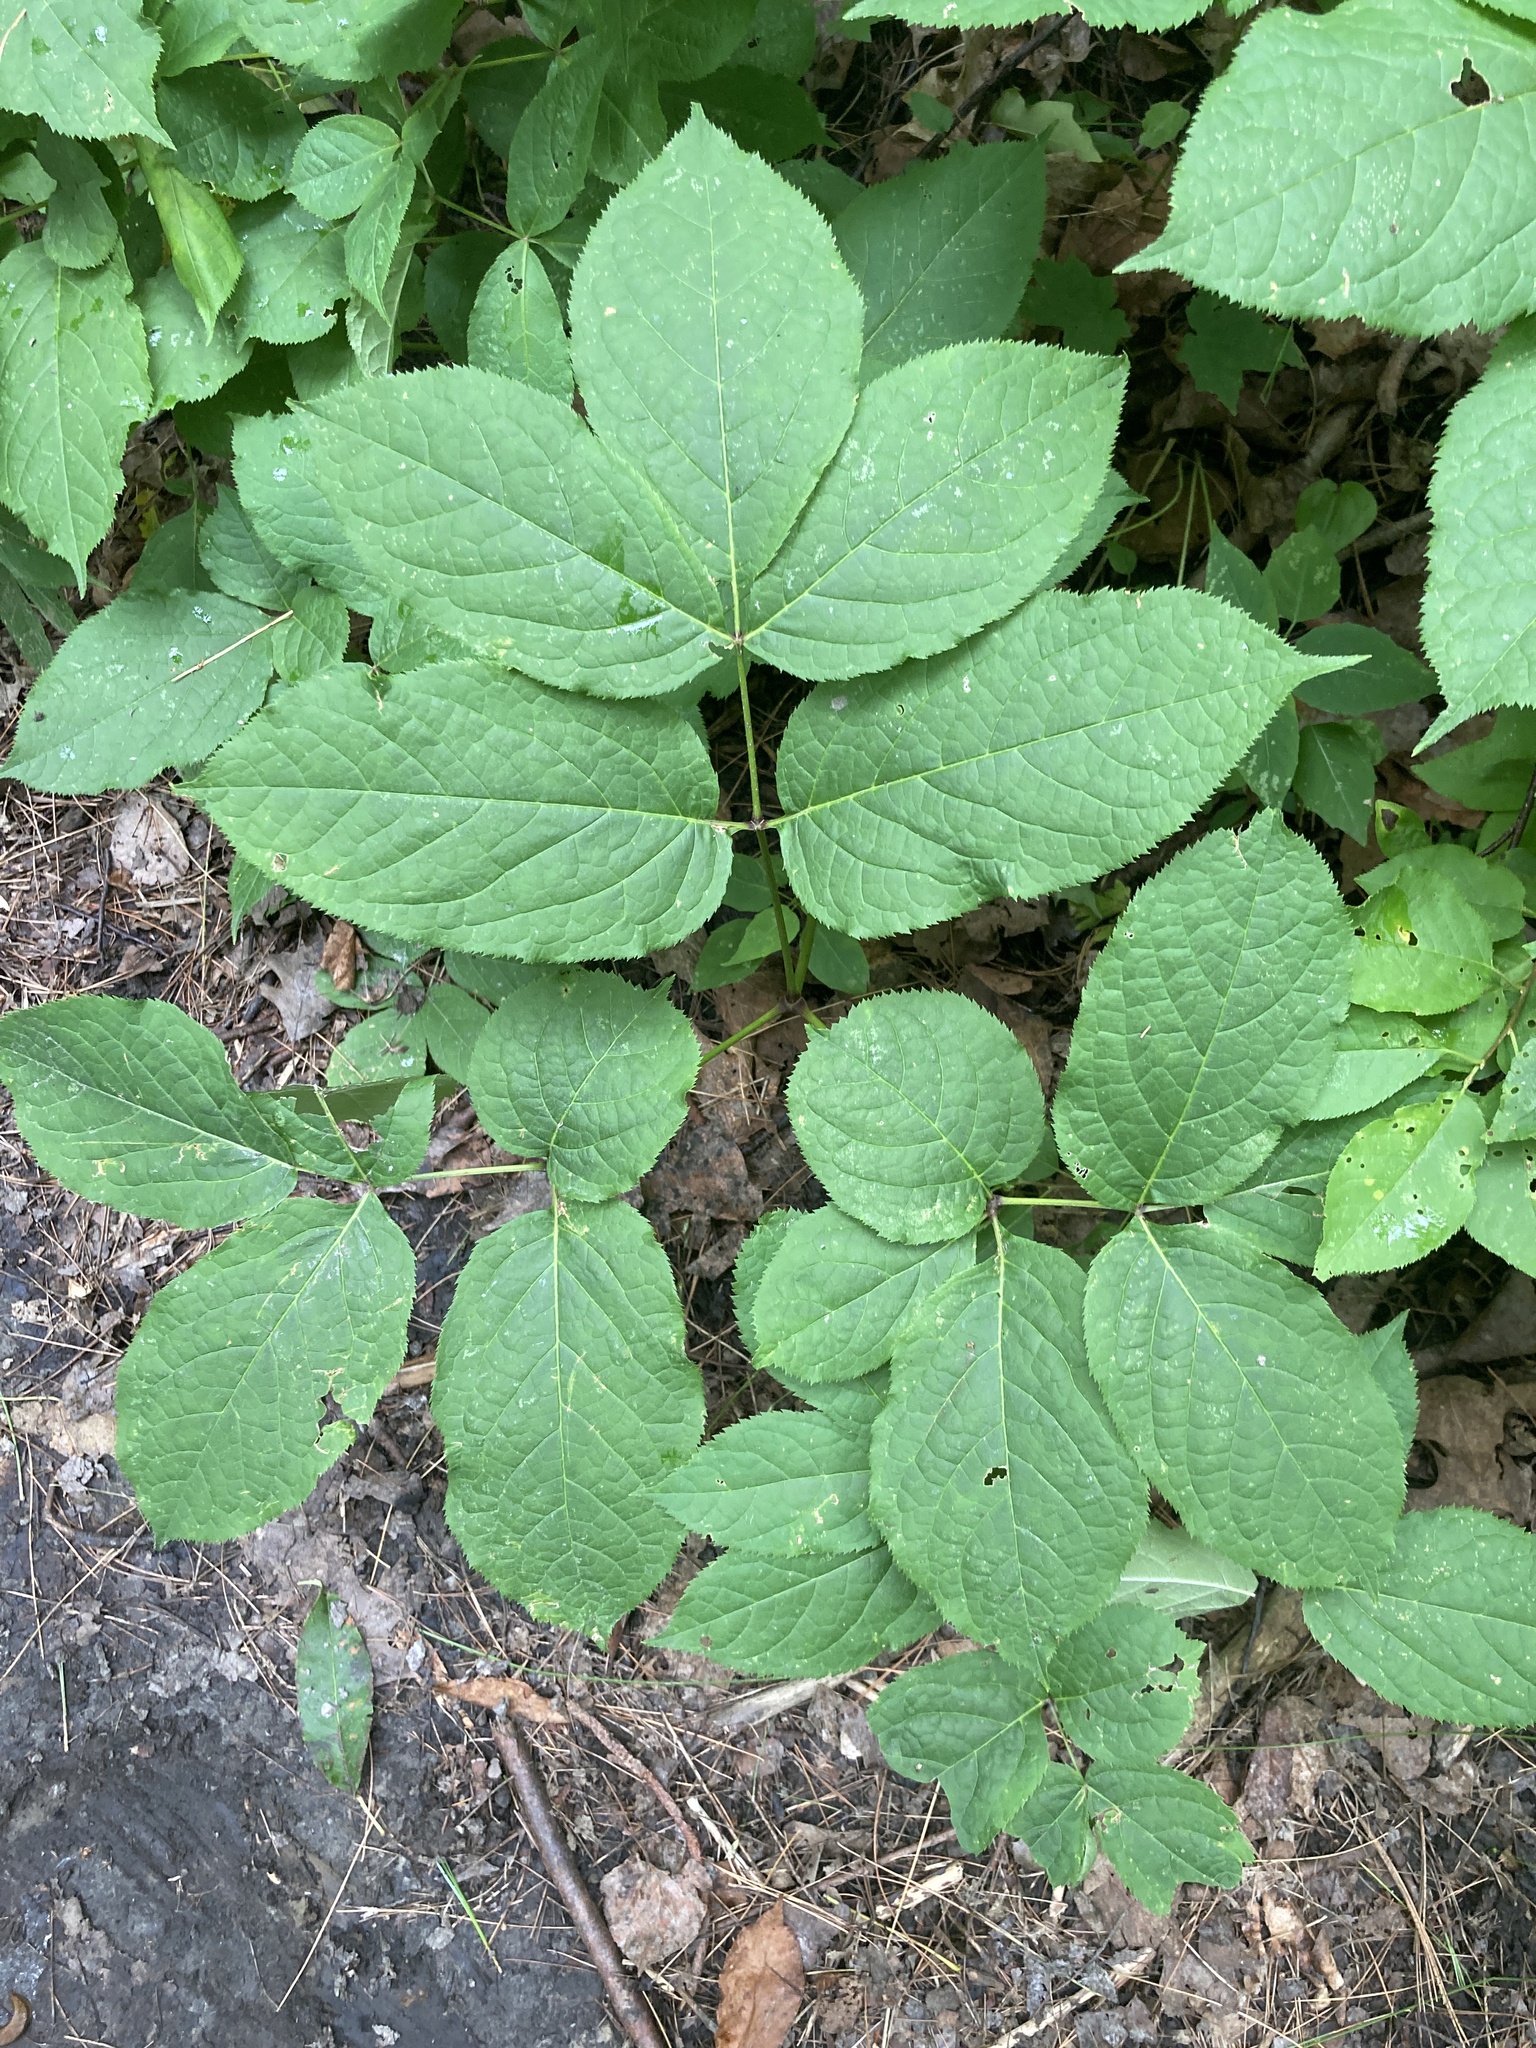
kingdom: Plantae
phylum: Tracheophyta
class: Magnoliopsida
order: Apiales
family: Araliaceae
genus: Aralia
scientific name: Aralia nudicaulis
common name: Wild sarsaparilla
